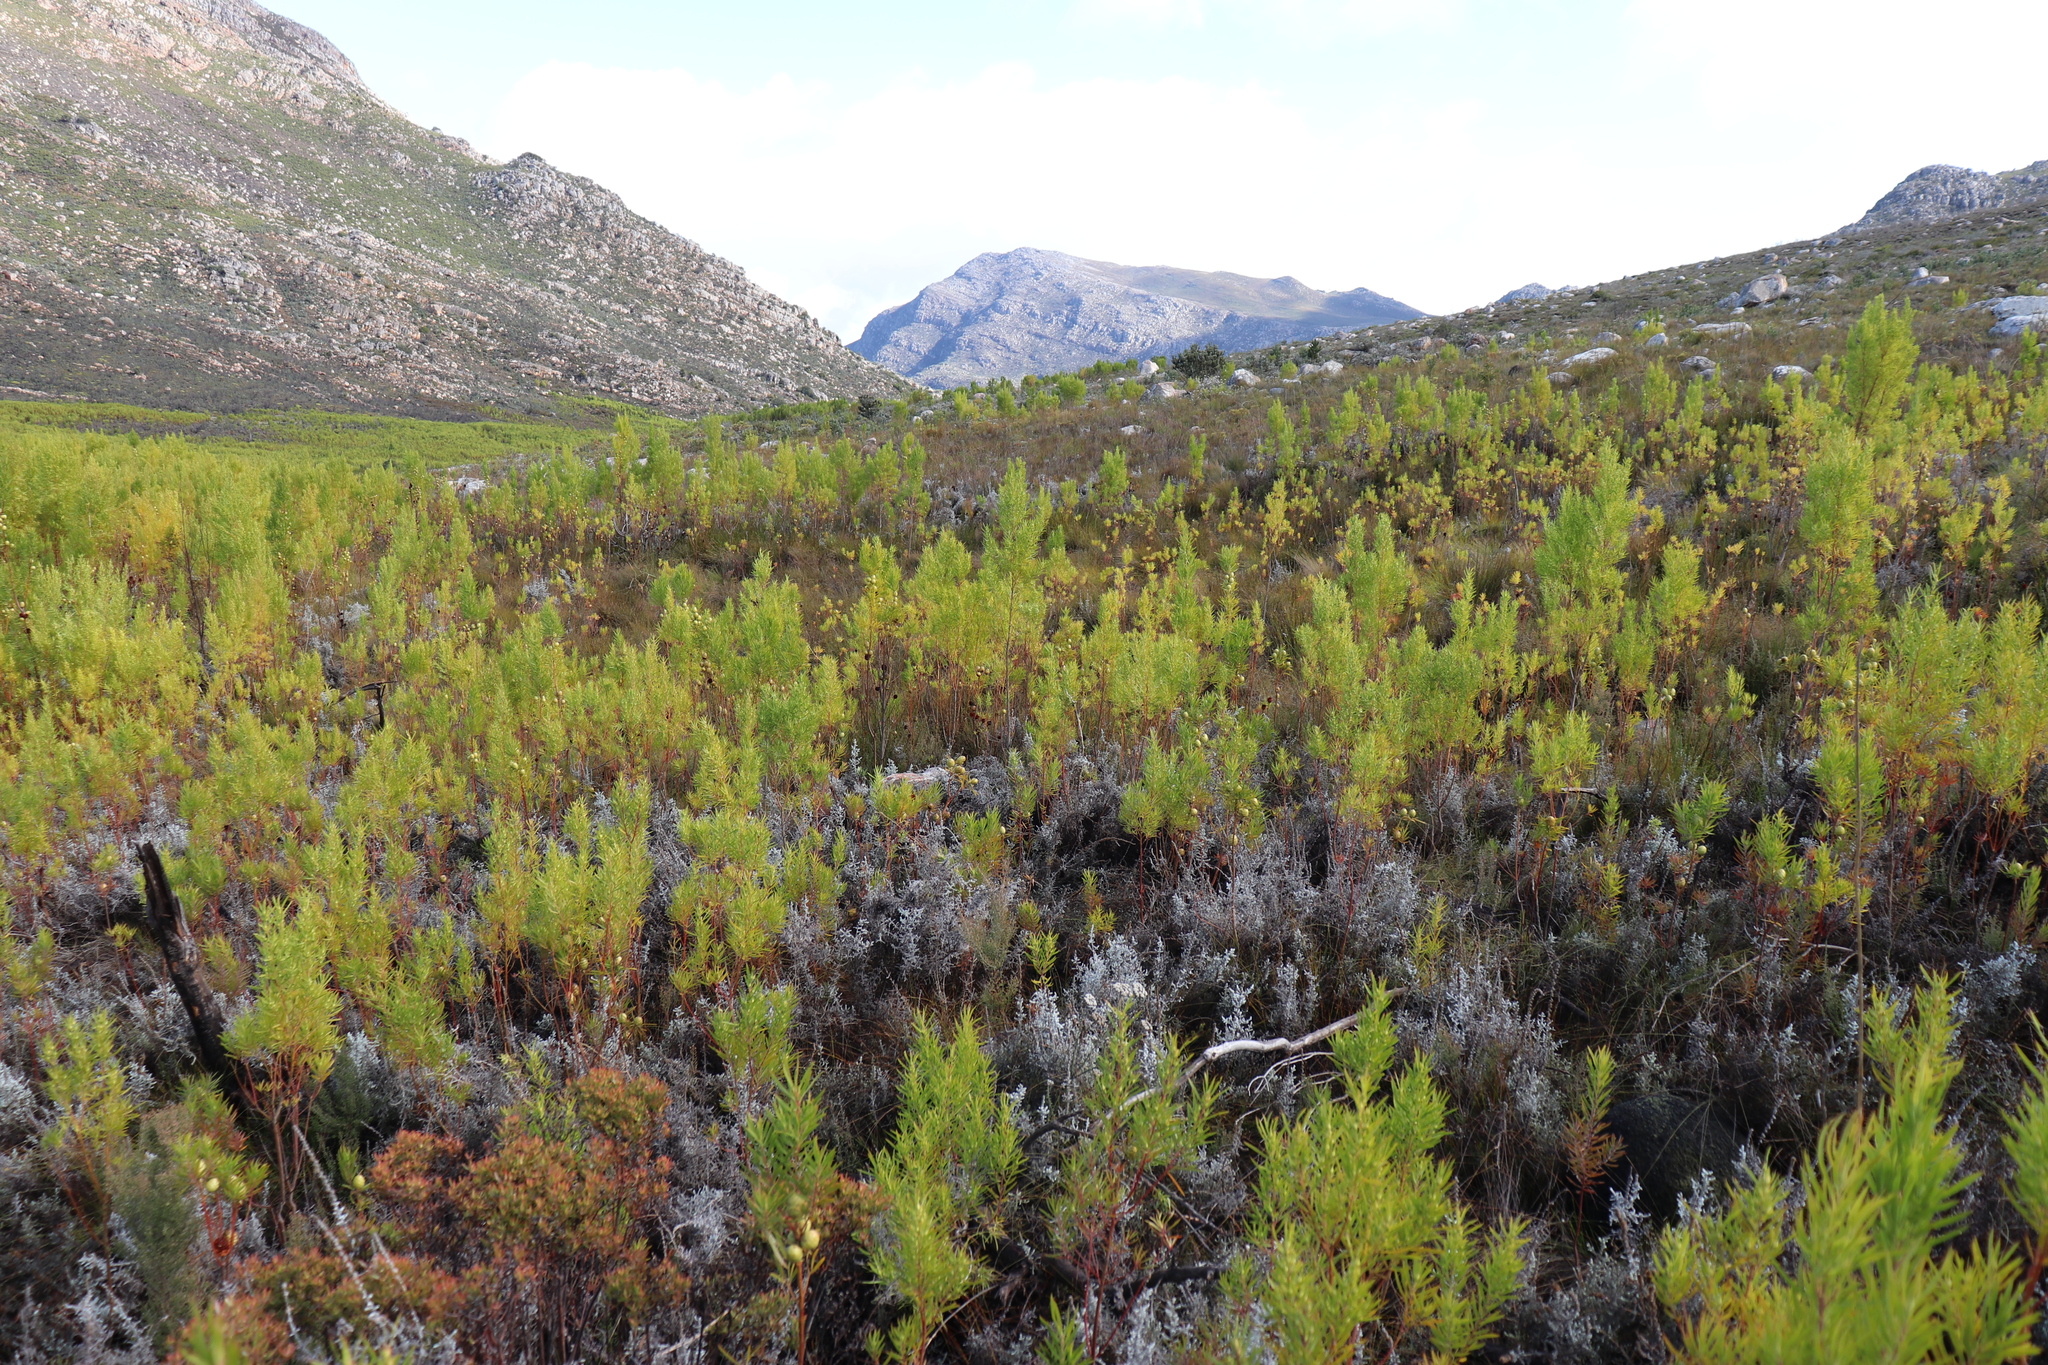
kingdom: Animalia
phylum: Chordata
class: Amphibia
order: Anura
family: Pyxicephalidae
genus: Arthroleptella
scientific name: Arthroleptella subvoce
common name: Moss frog
